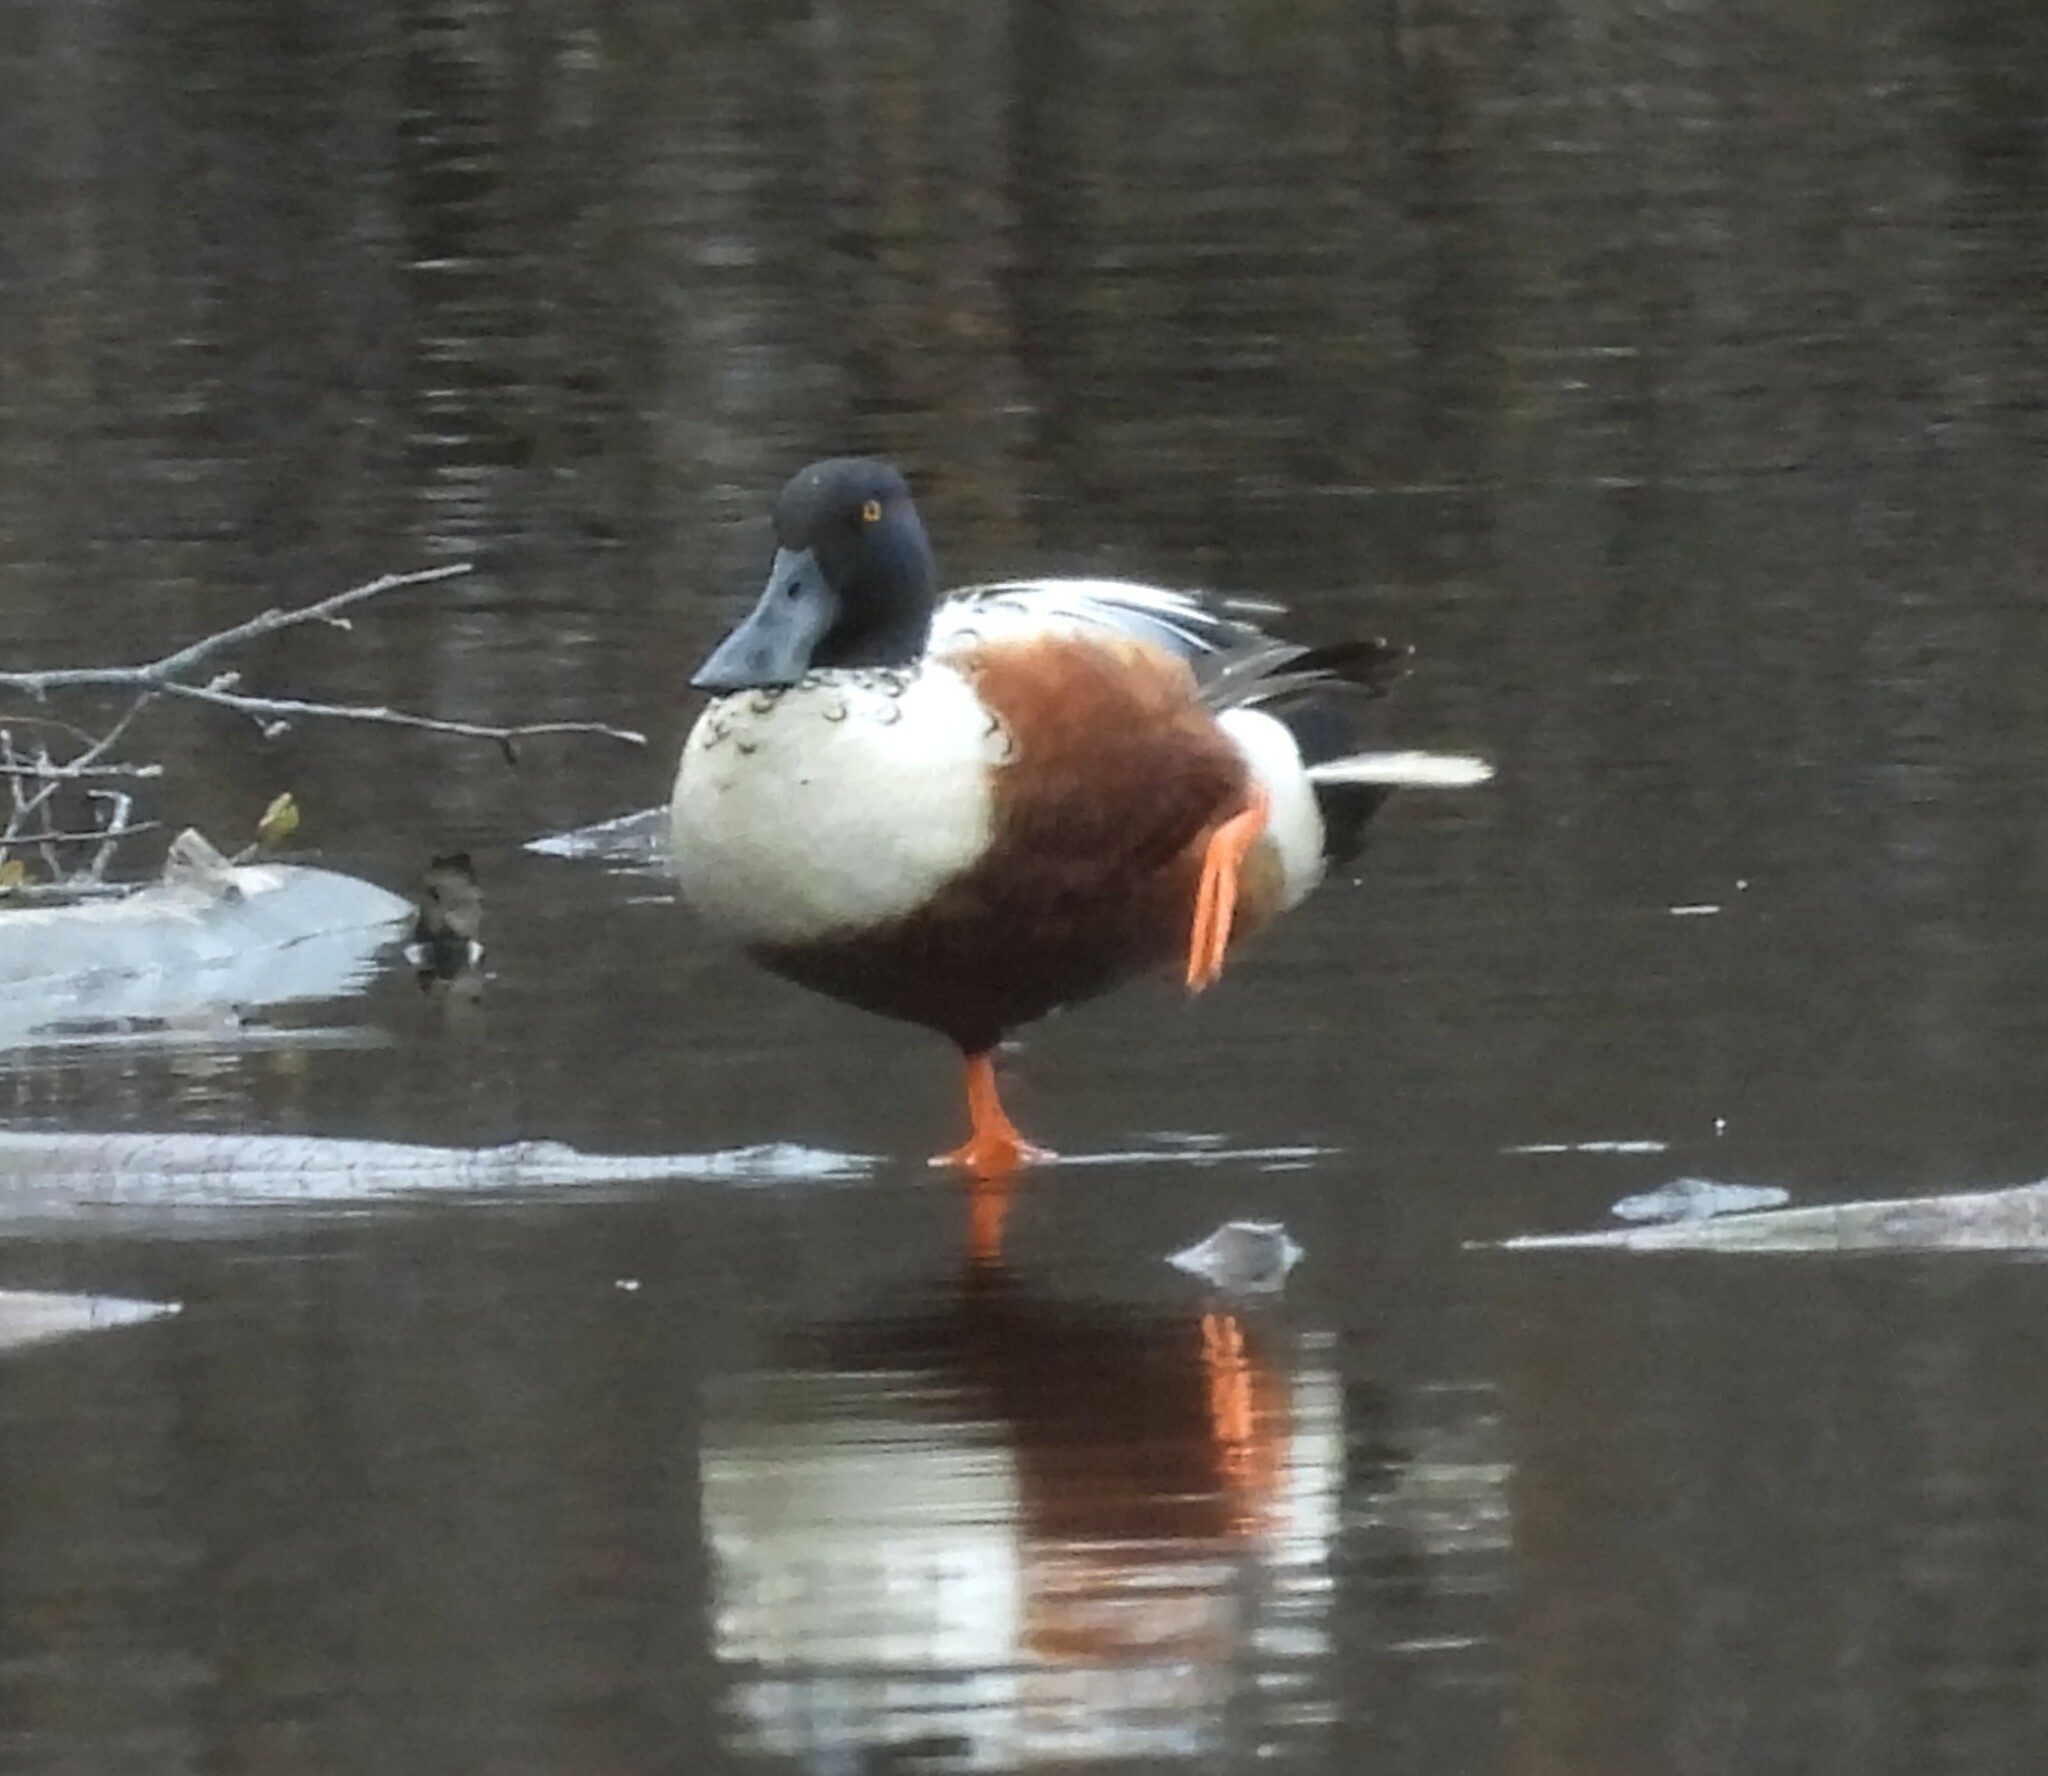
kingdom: Animalia
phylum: Chordata
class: Aves
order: Anseriformes
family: Anatidae
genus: Spatula
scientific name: Spatula clypeata
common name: Northern shoveler
